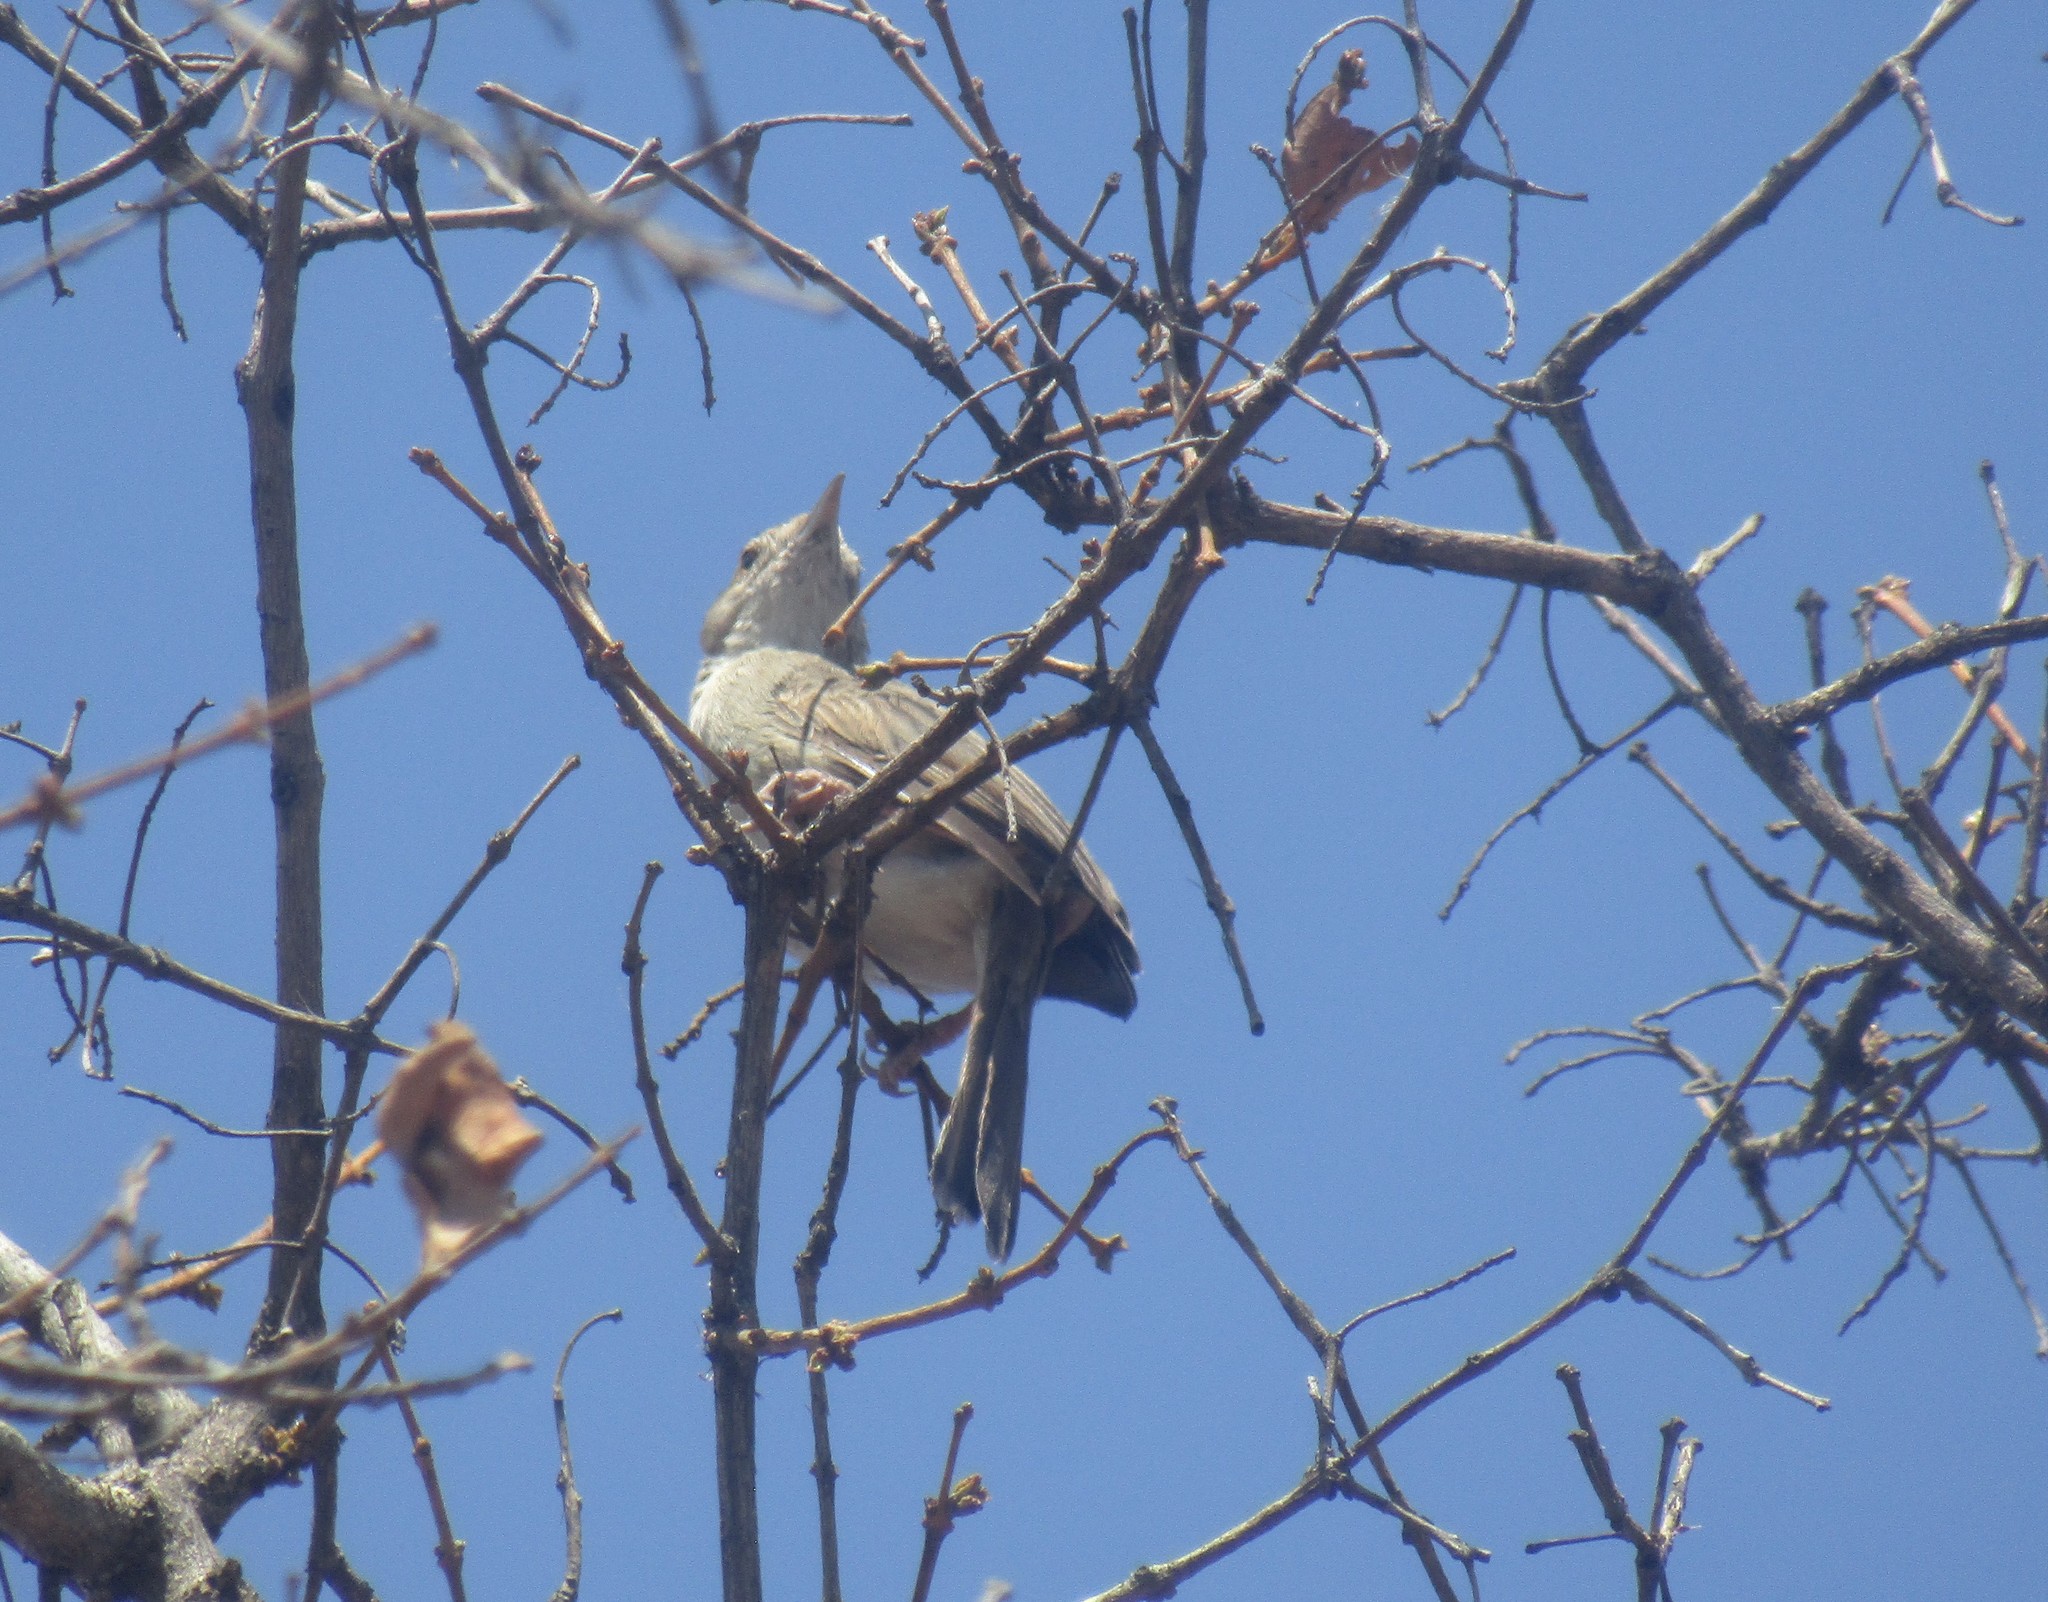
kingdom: Animalia
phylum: Chordata
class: Aves
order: Passeriformes
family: Cisticolidae
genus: Cisticola
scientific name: Cisticola chiniana
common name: Rattling cisticola
